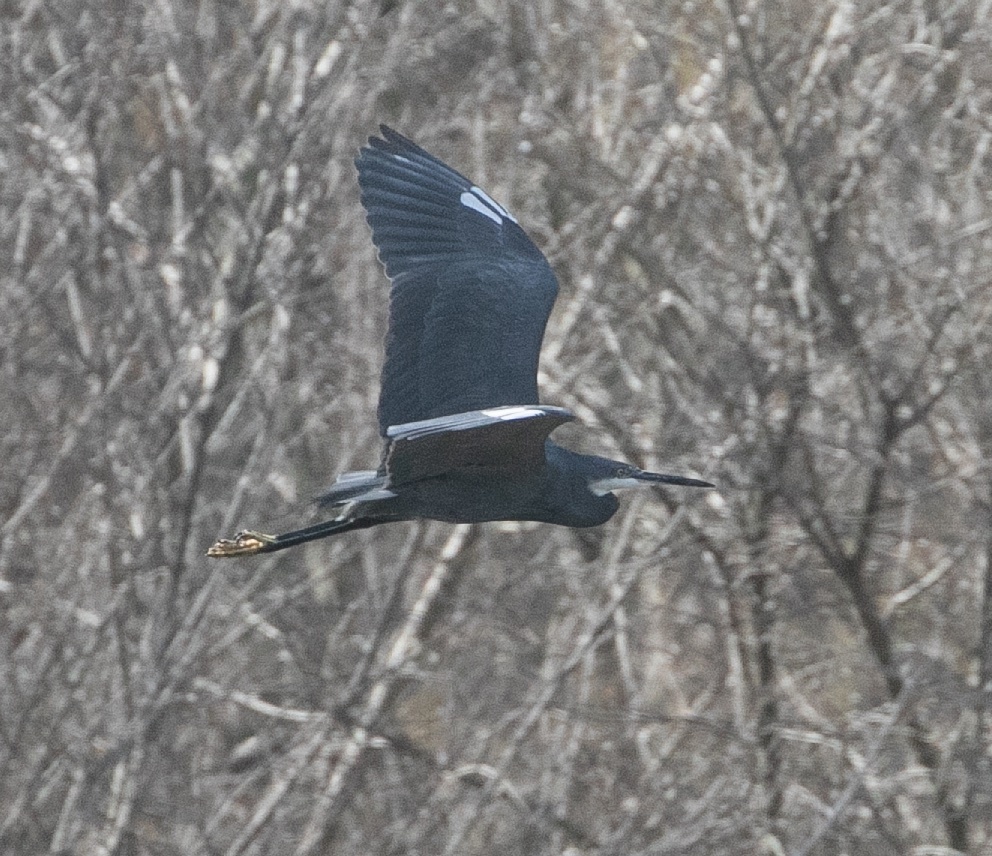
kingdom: Animalia
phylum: Chordata
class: Aves
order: Pelecaniformes
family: Ardeidae
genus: Egretta
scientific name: Egretta gularis
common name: Western reef-heron
